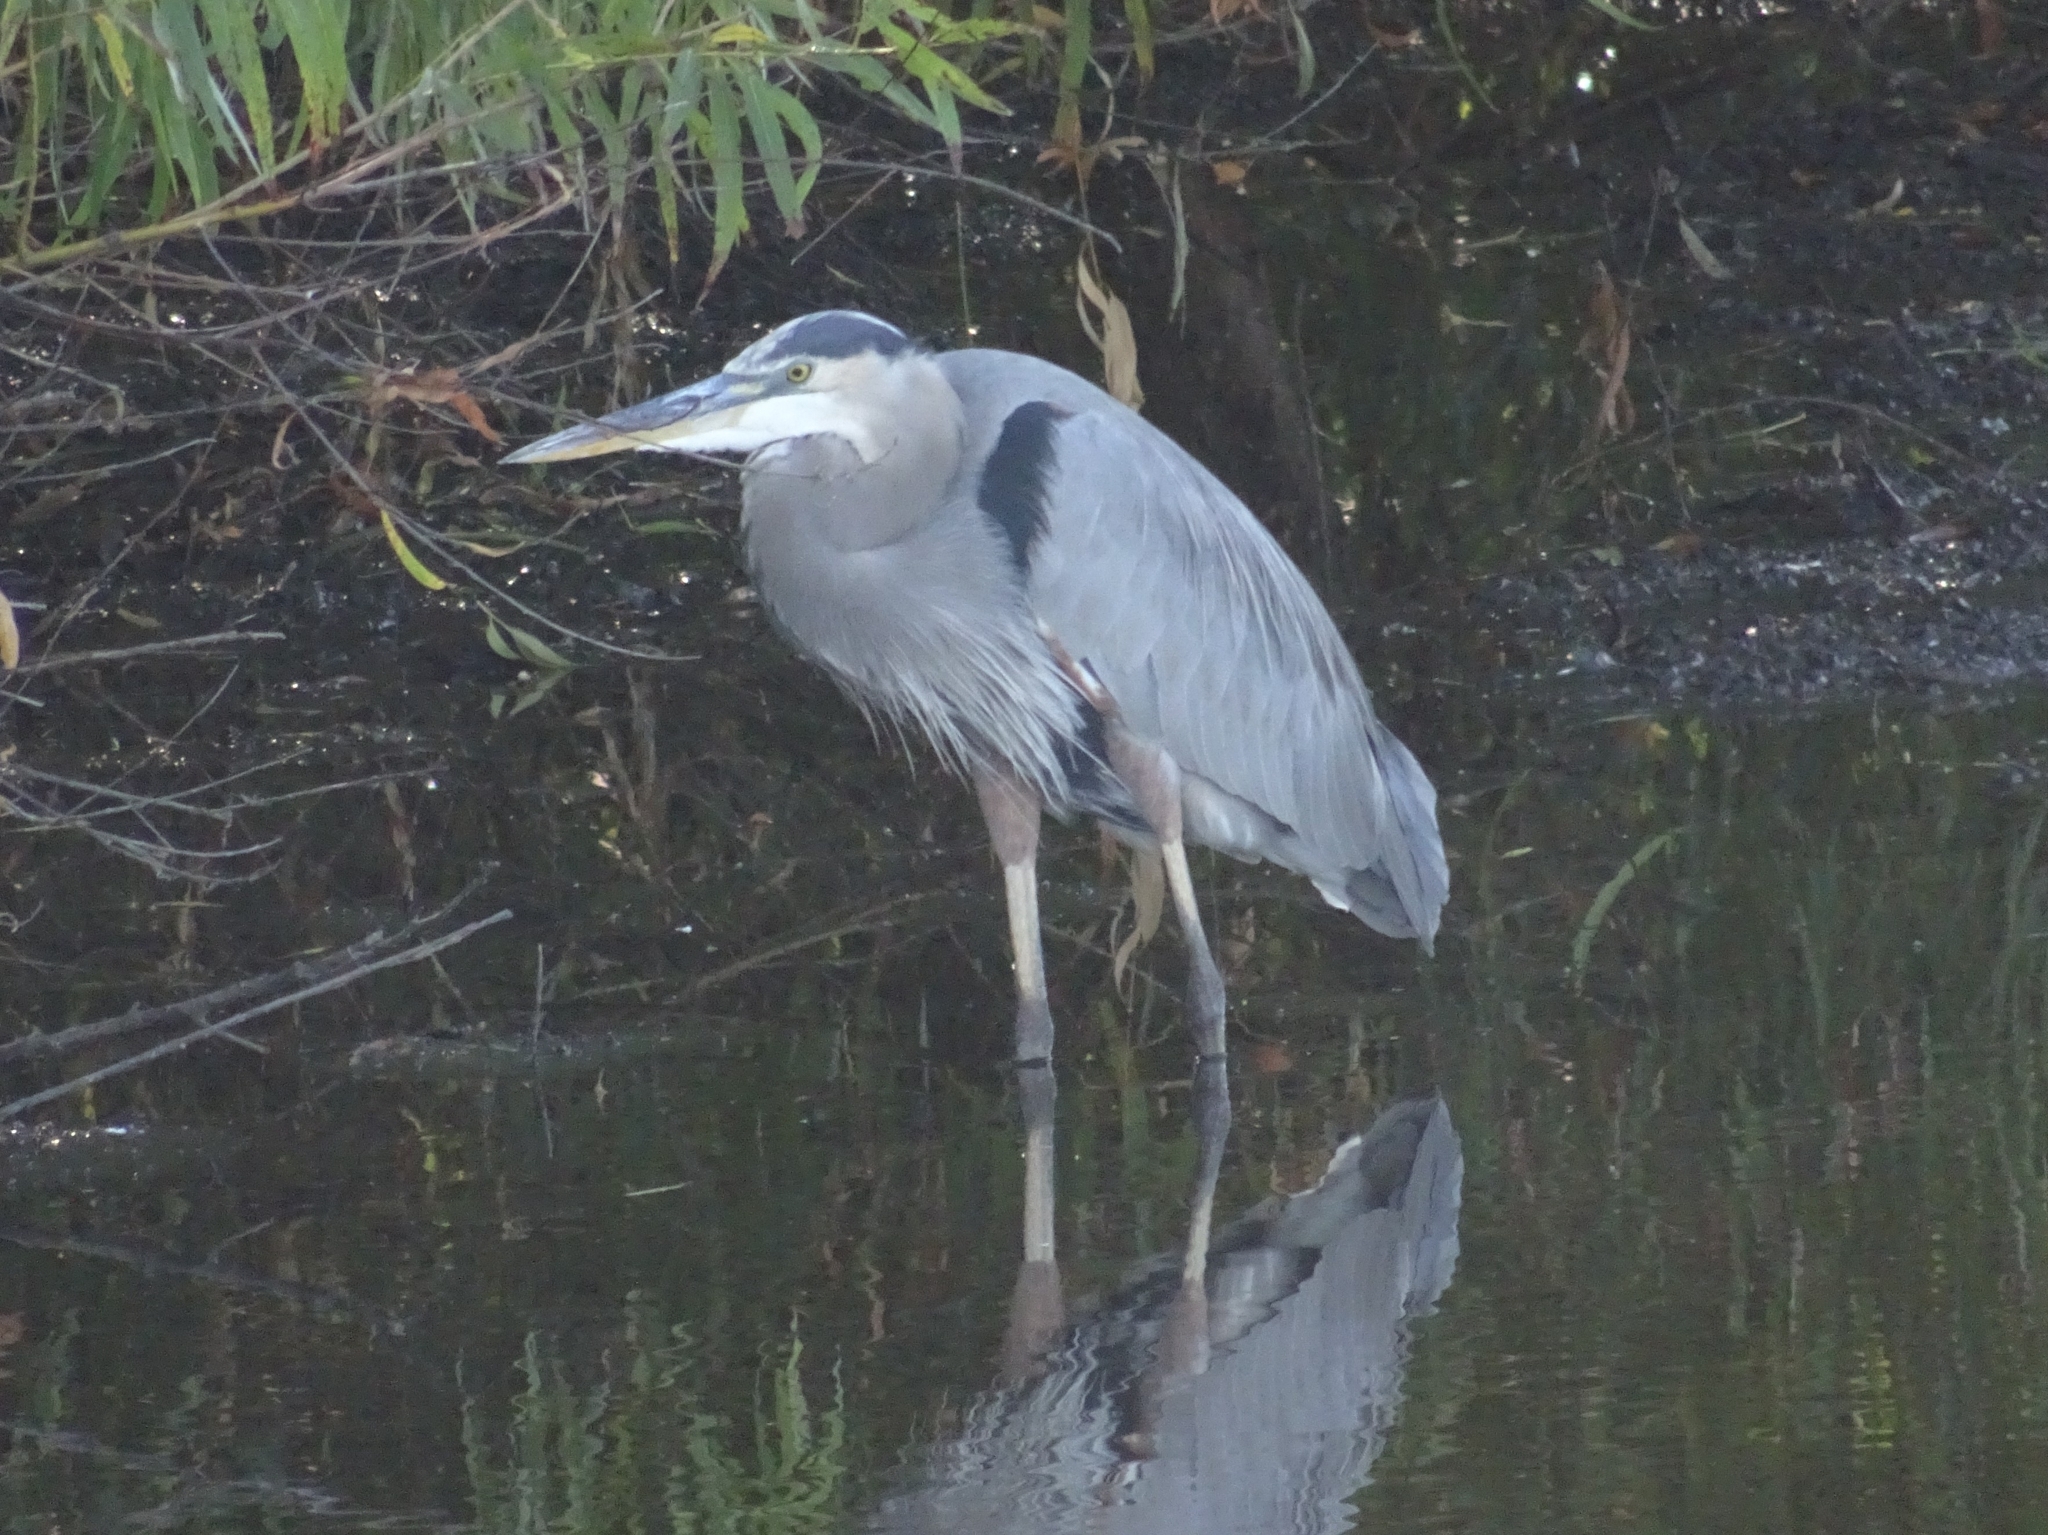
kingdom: Animalia
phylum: Chordata
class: Aves
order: Pelecaniformes
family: Ardeidae
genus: Ardea
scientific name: Ardea herodias
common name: Great blue heron
